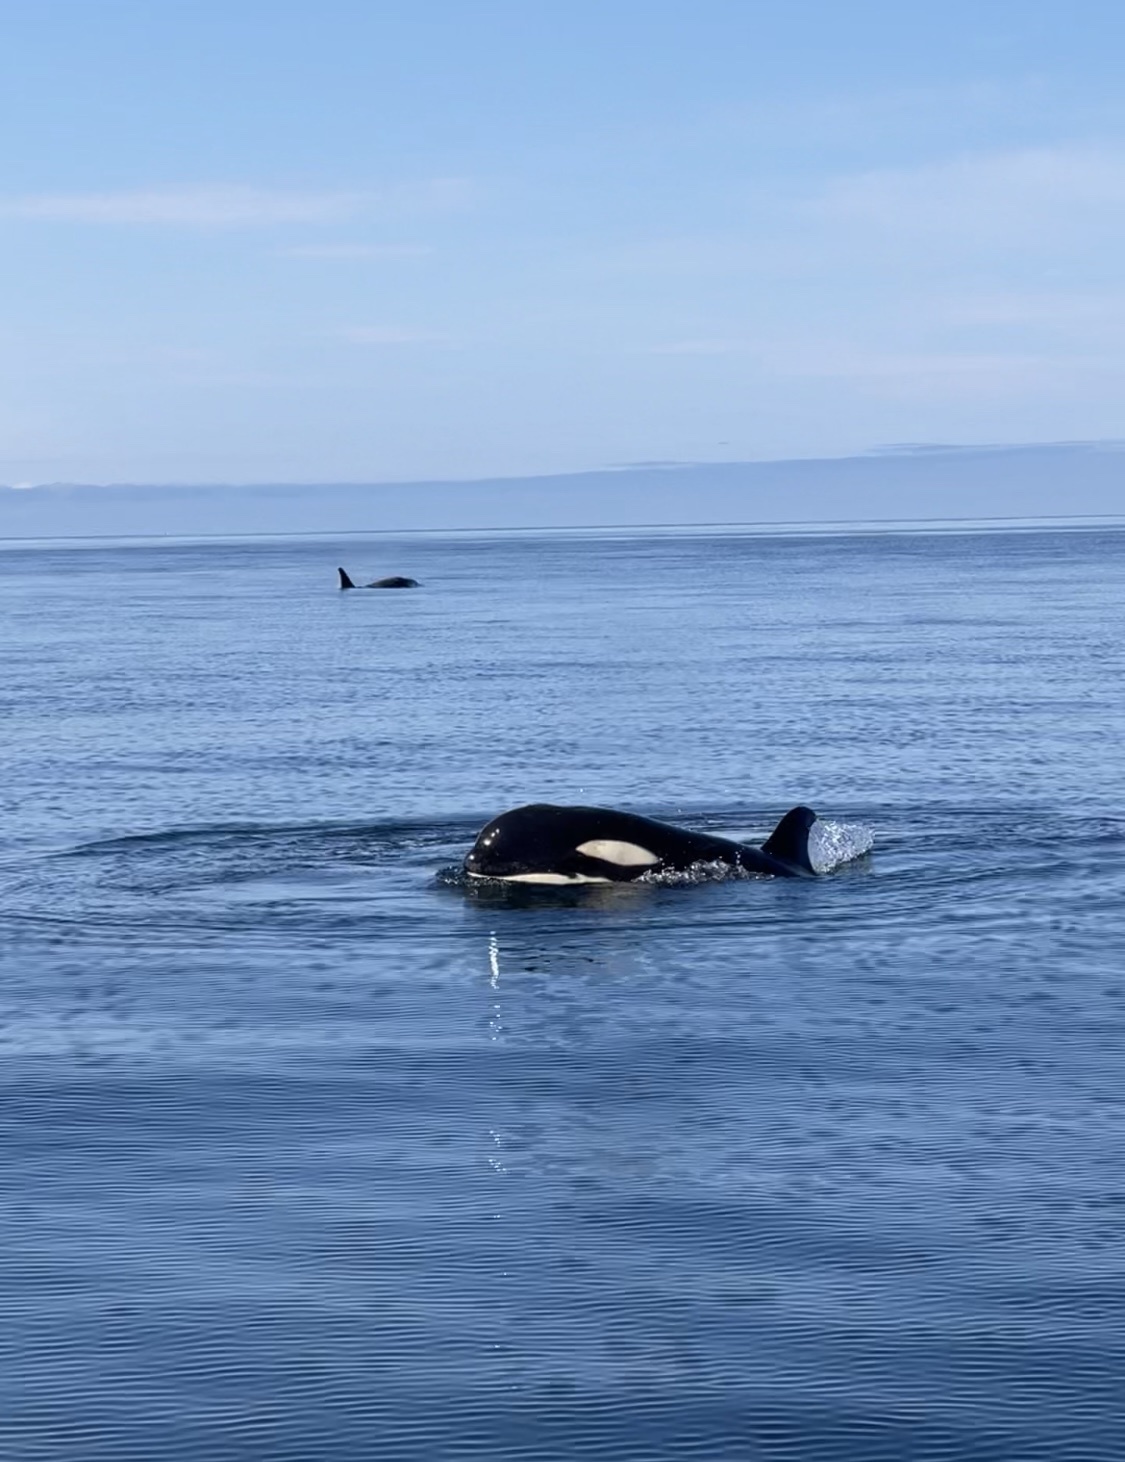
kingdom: Animalia
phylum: Chordata
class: Mammalia
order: Cetacea
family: Delphinidae
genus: Orcinus
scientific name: Orcinus orca
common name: Killer whale
